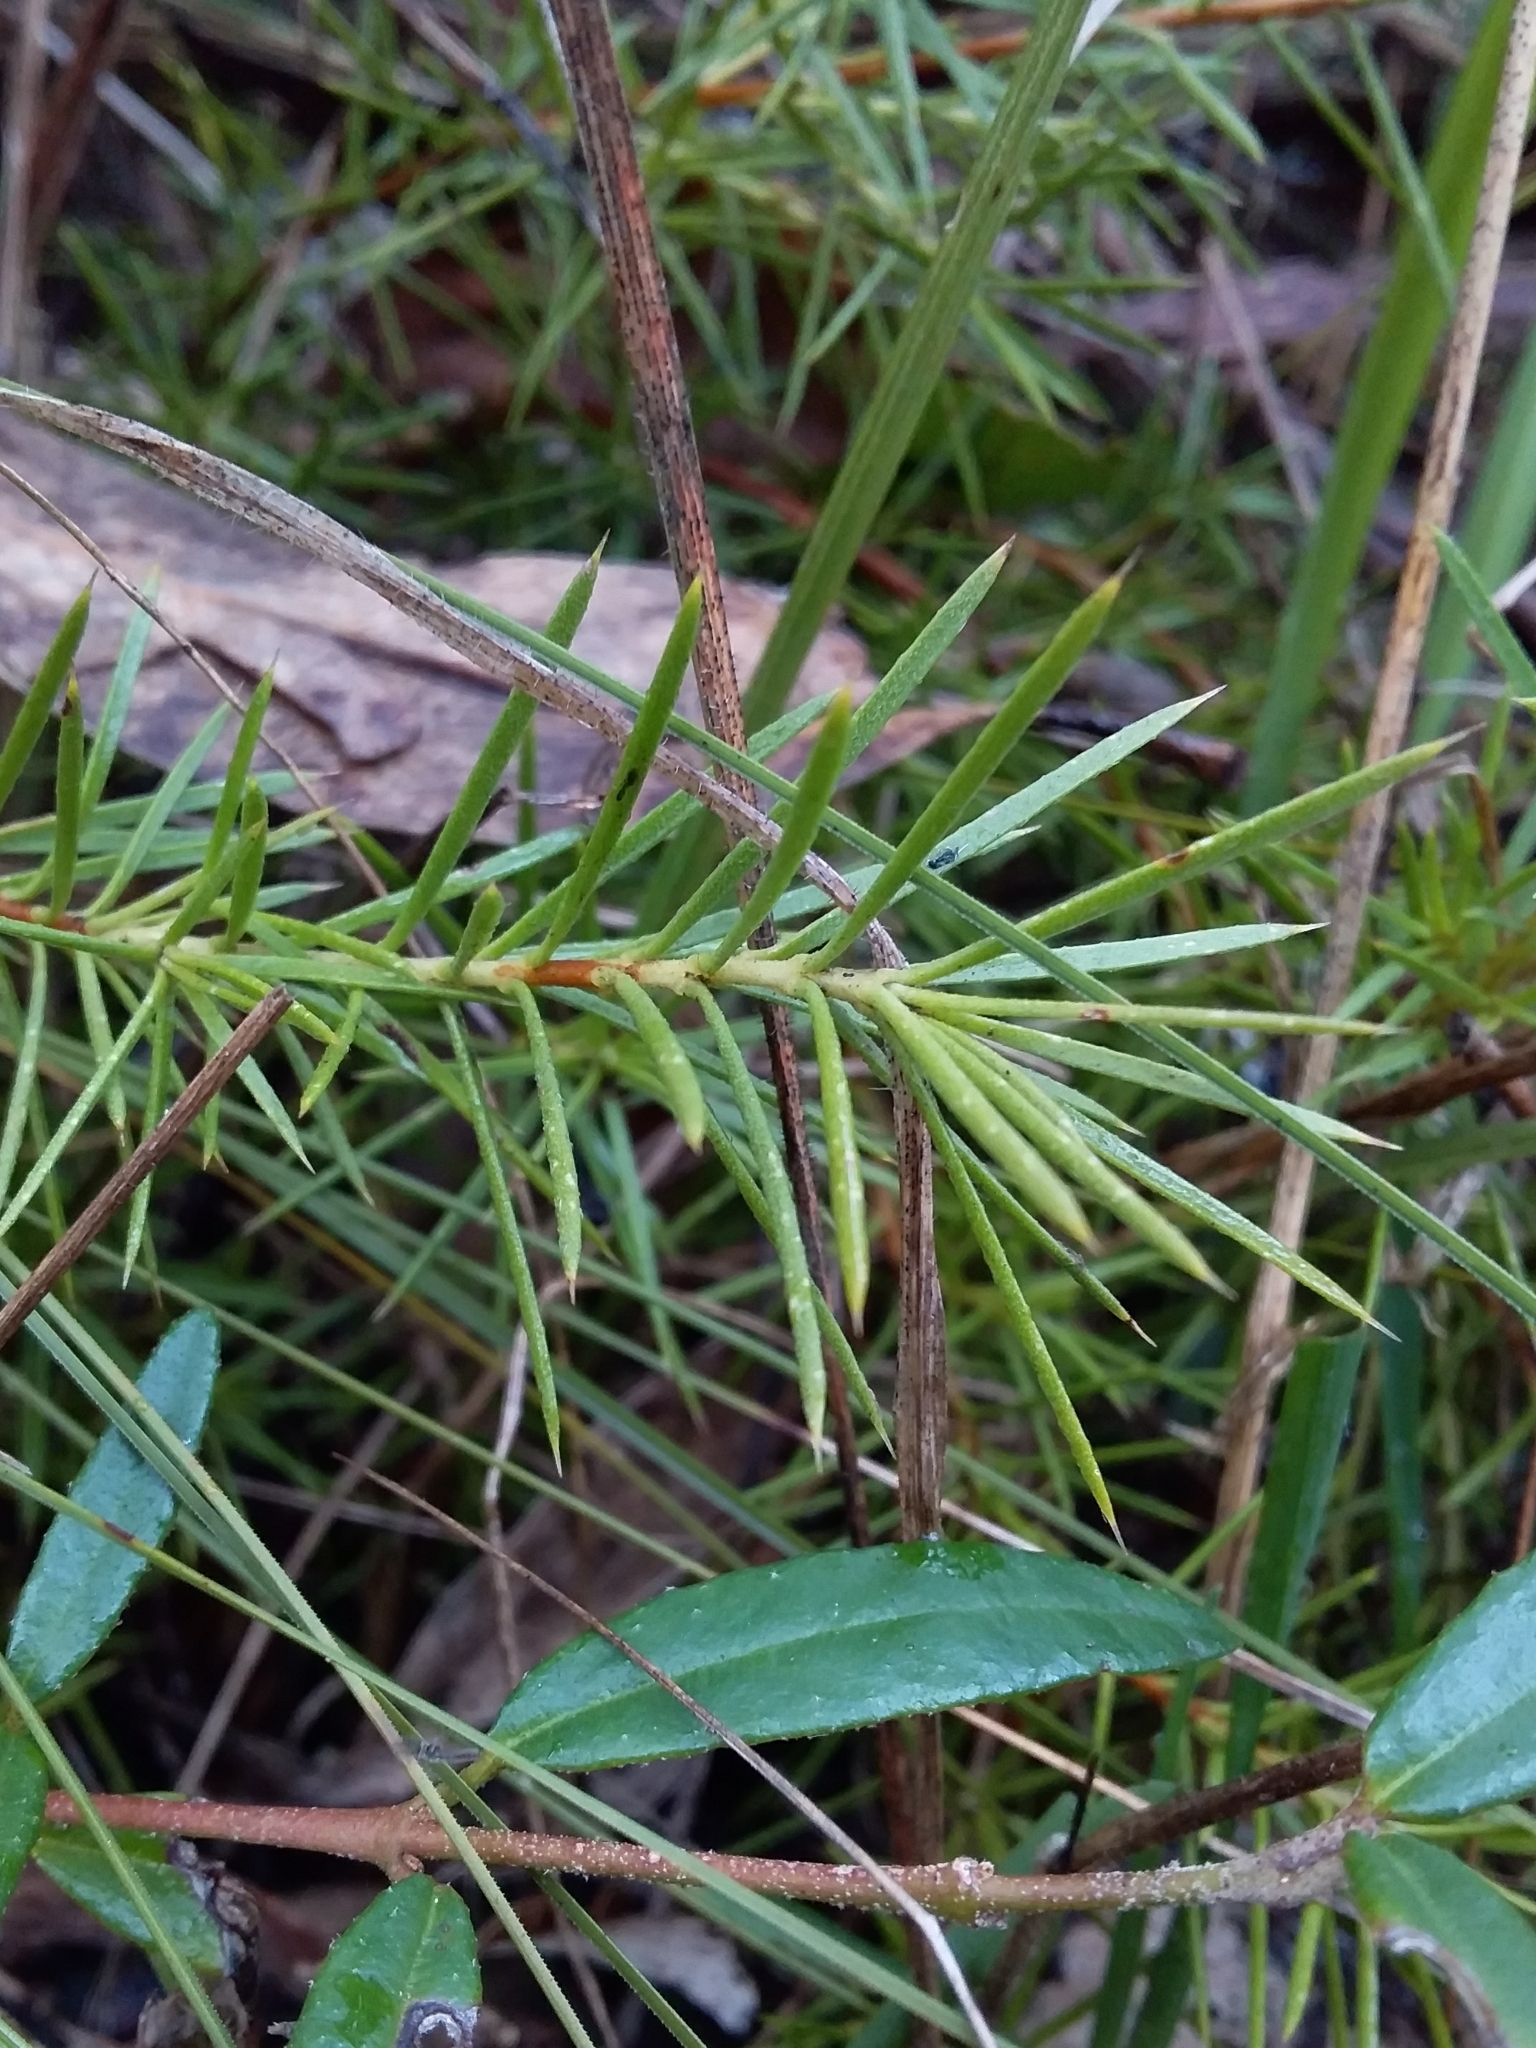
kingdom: Plantae
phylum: Tracheophyta
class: Magnoliopsida
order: Proteales
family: Proteaceae
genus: Persoonia
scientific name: Persoonia juniperina
